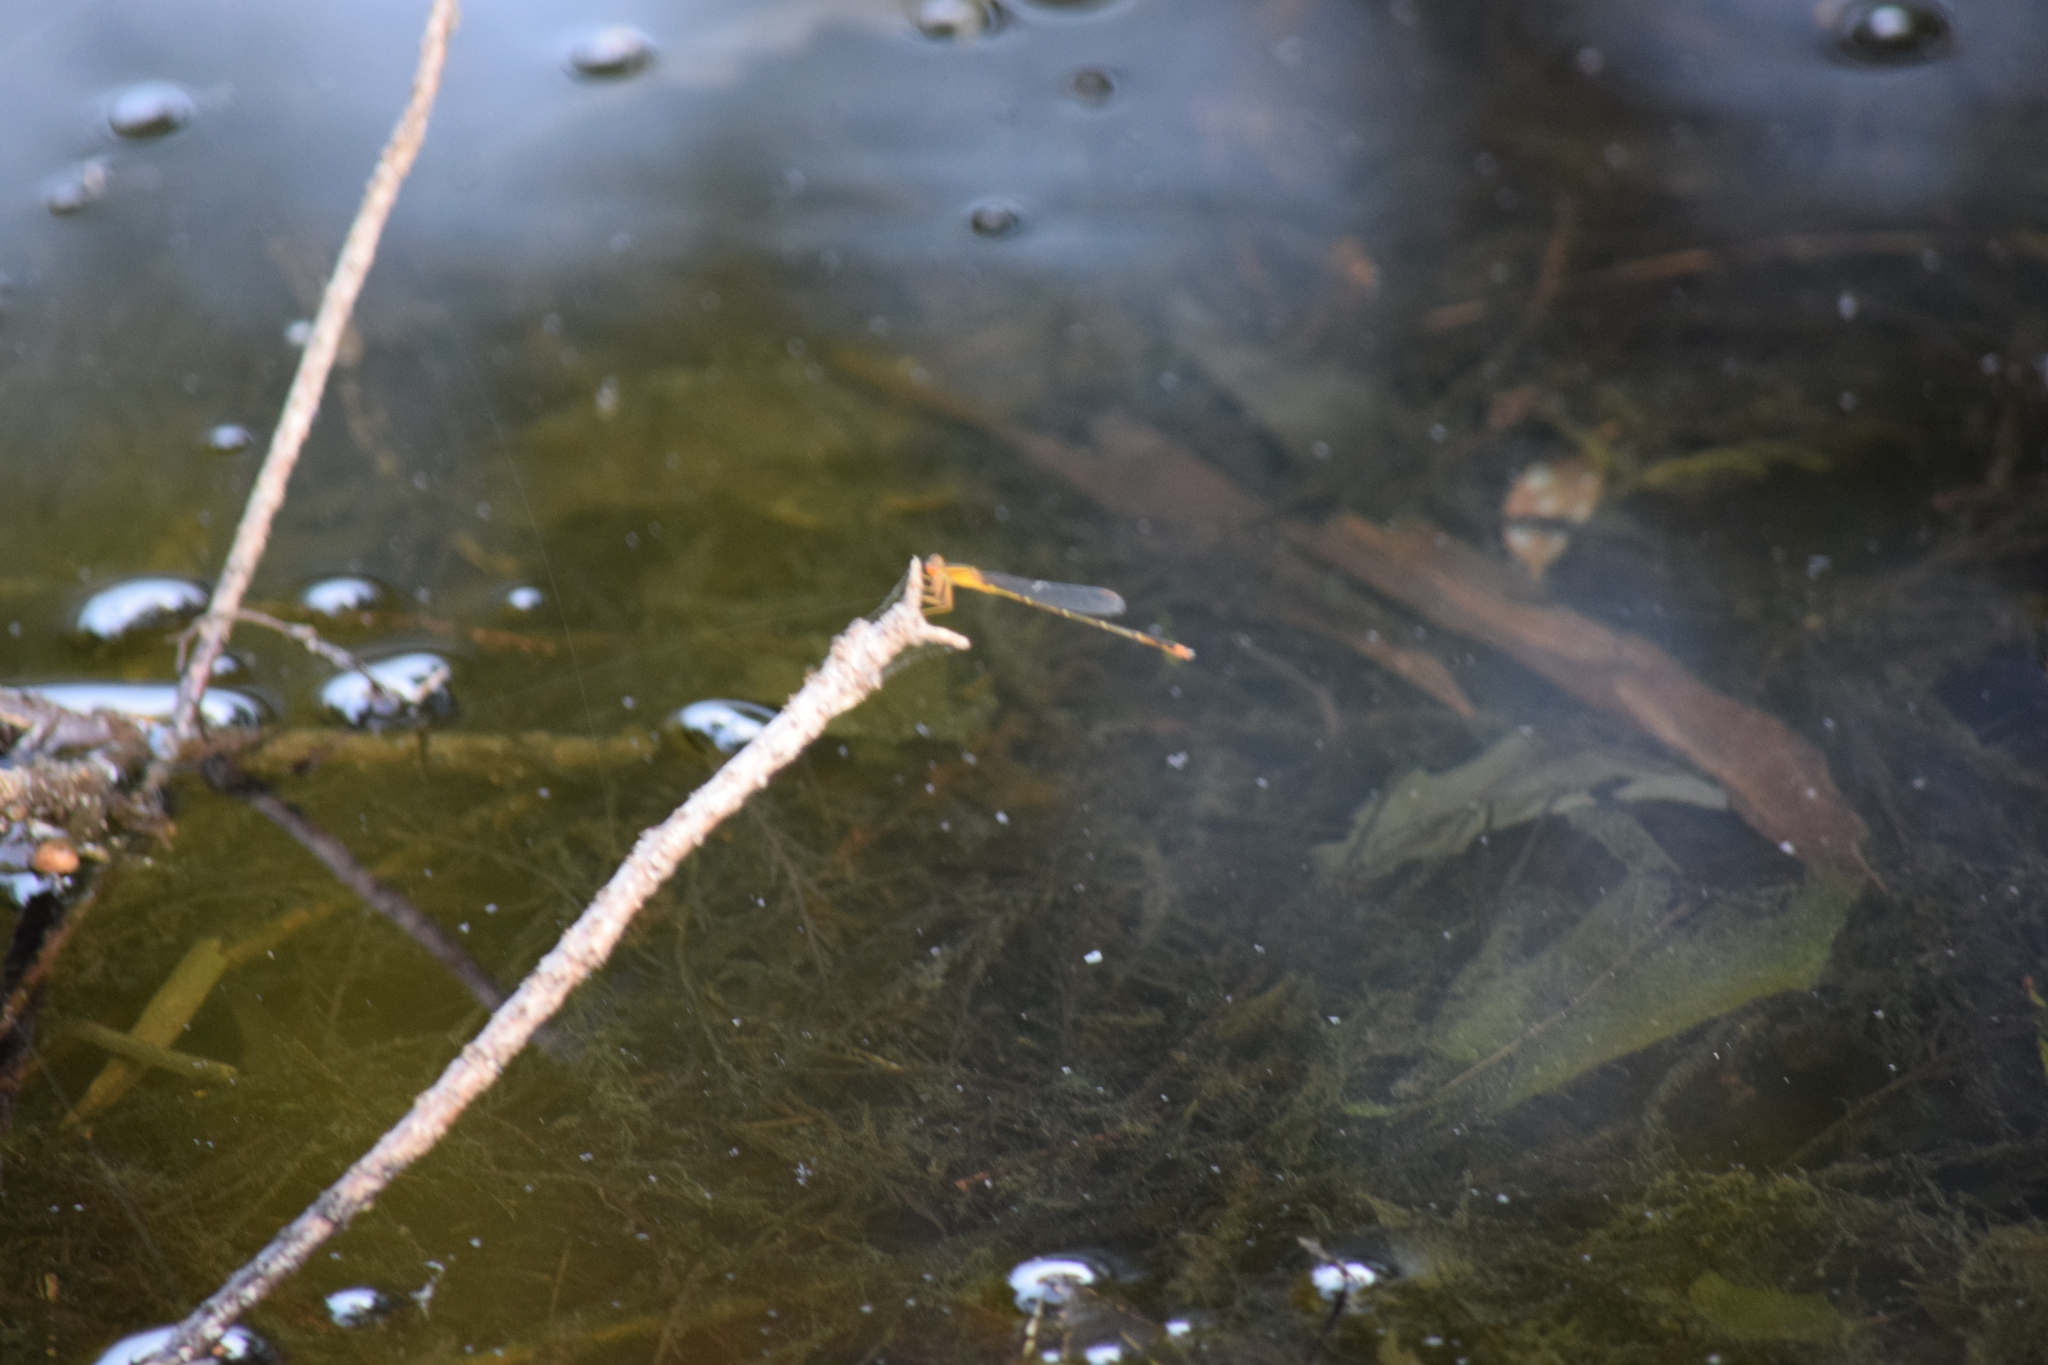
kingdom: Animalia
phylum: Arthropoda
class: Insecta
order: Odonata
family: Coenagrionidae
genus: Enallagma
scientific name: Enallagma signatum
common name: Orange bluet
